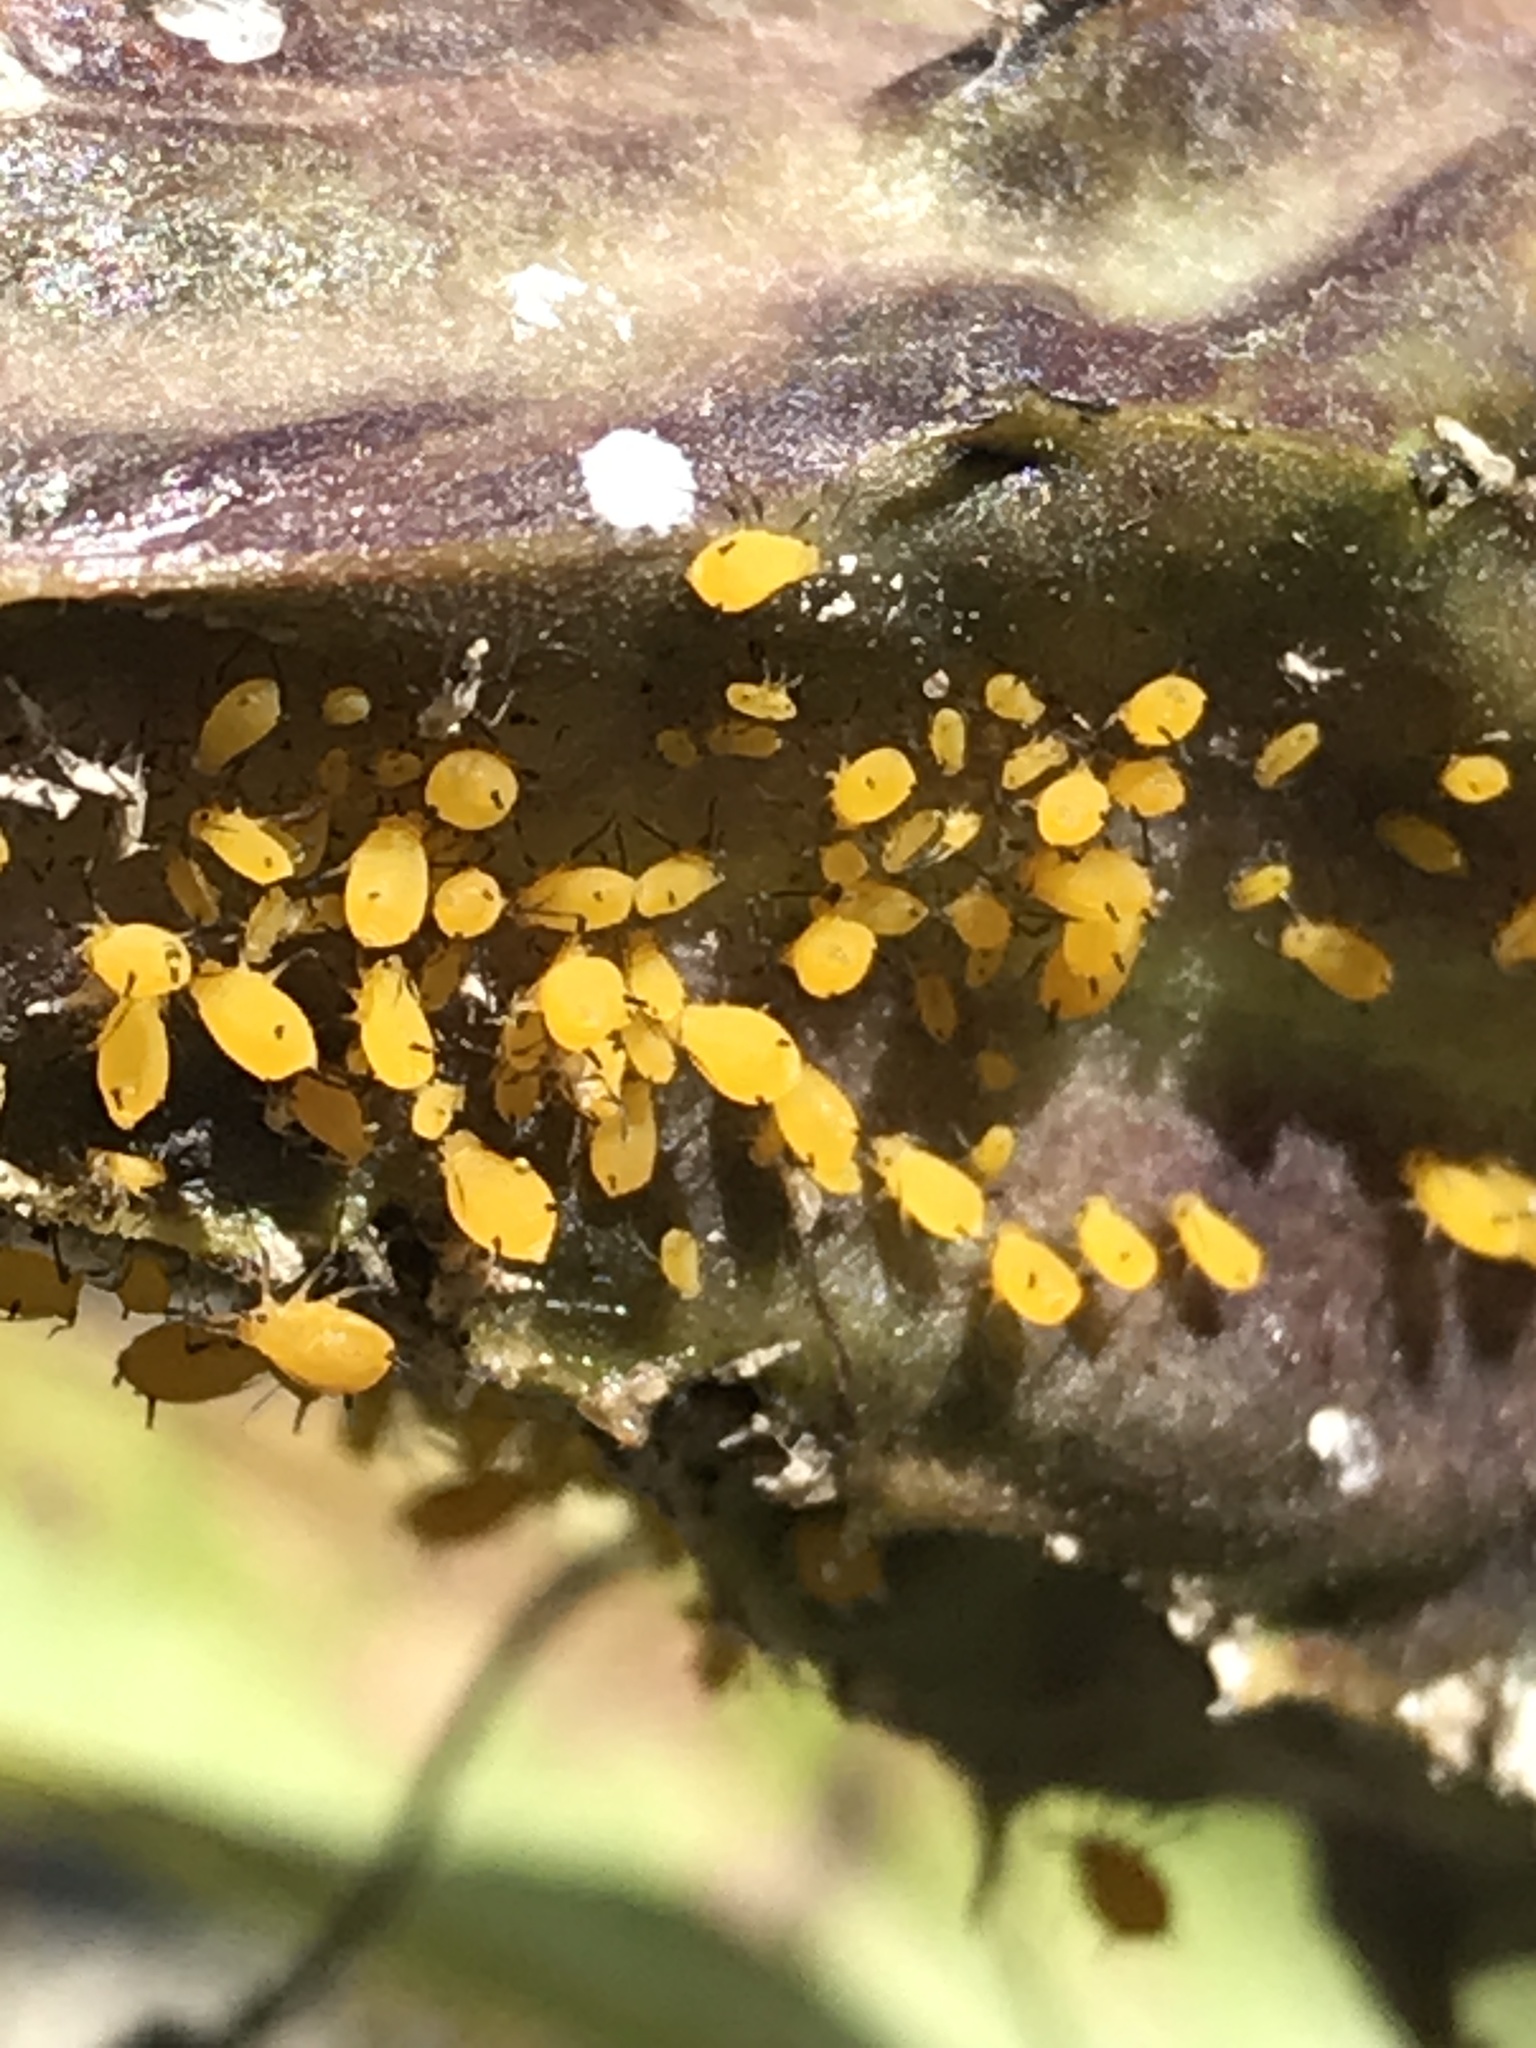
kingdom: Animalia
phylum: Arthropoda
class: Insecta
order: Hemiptera
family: Aphididae
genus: Aphis
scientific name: Aphis nerii
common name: Oleander aphid
